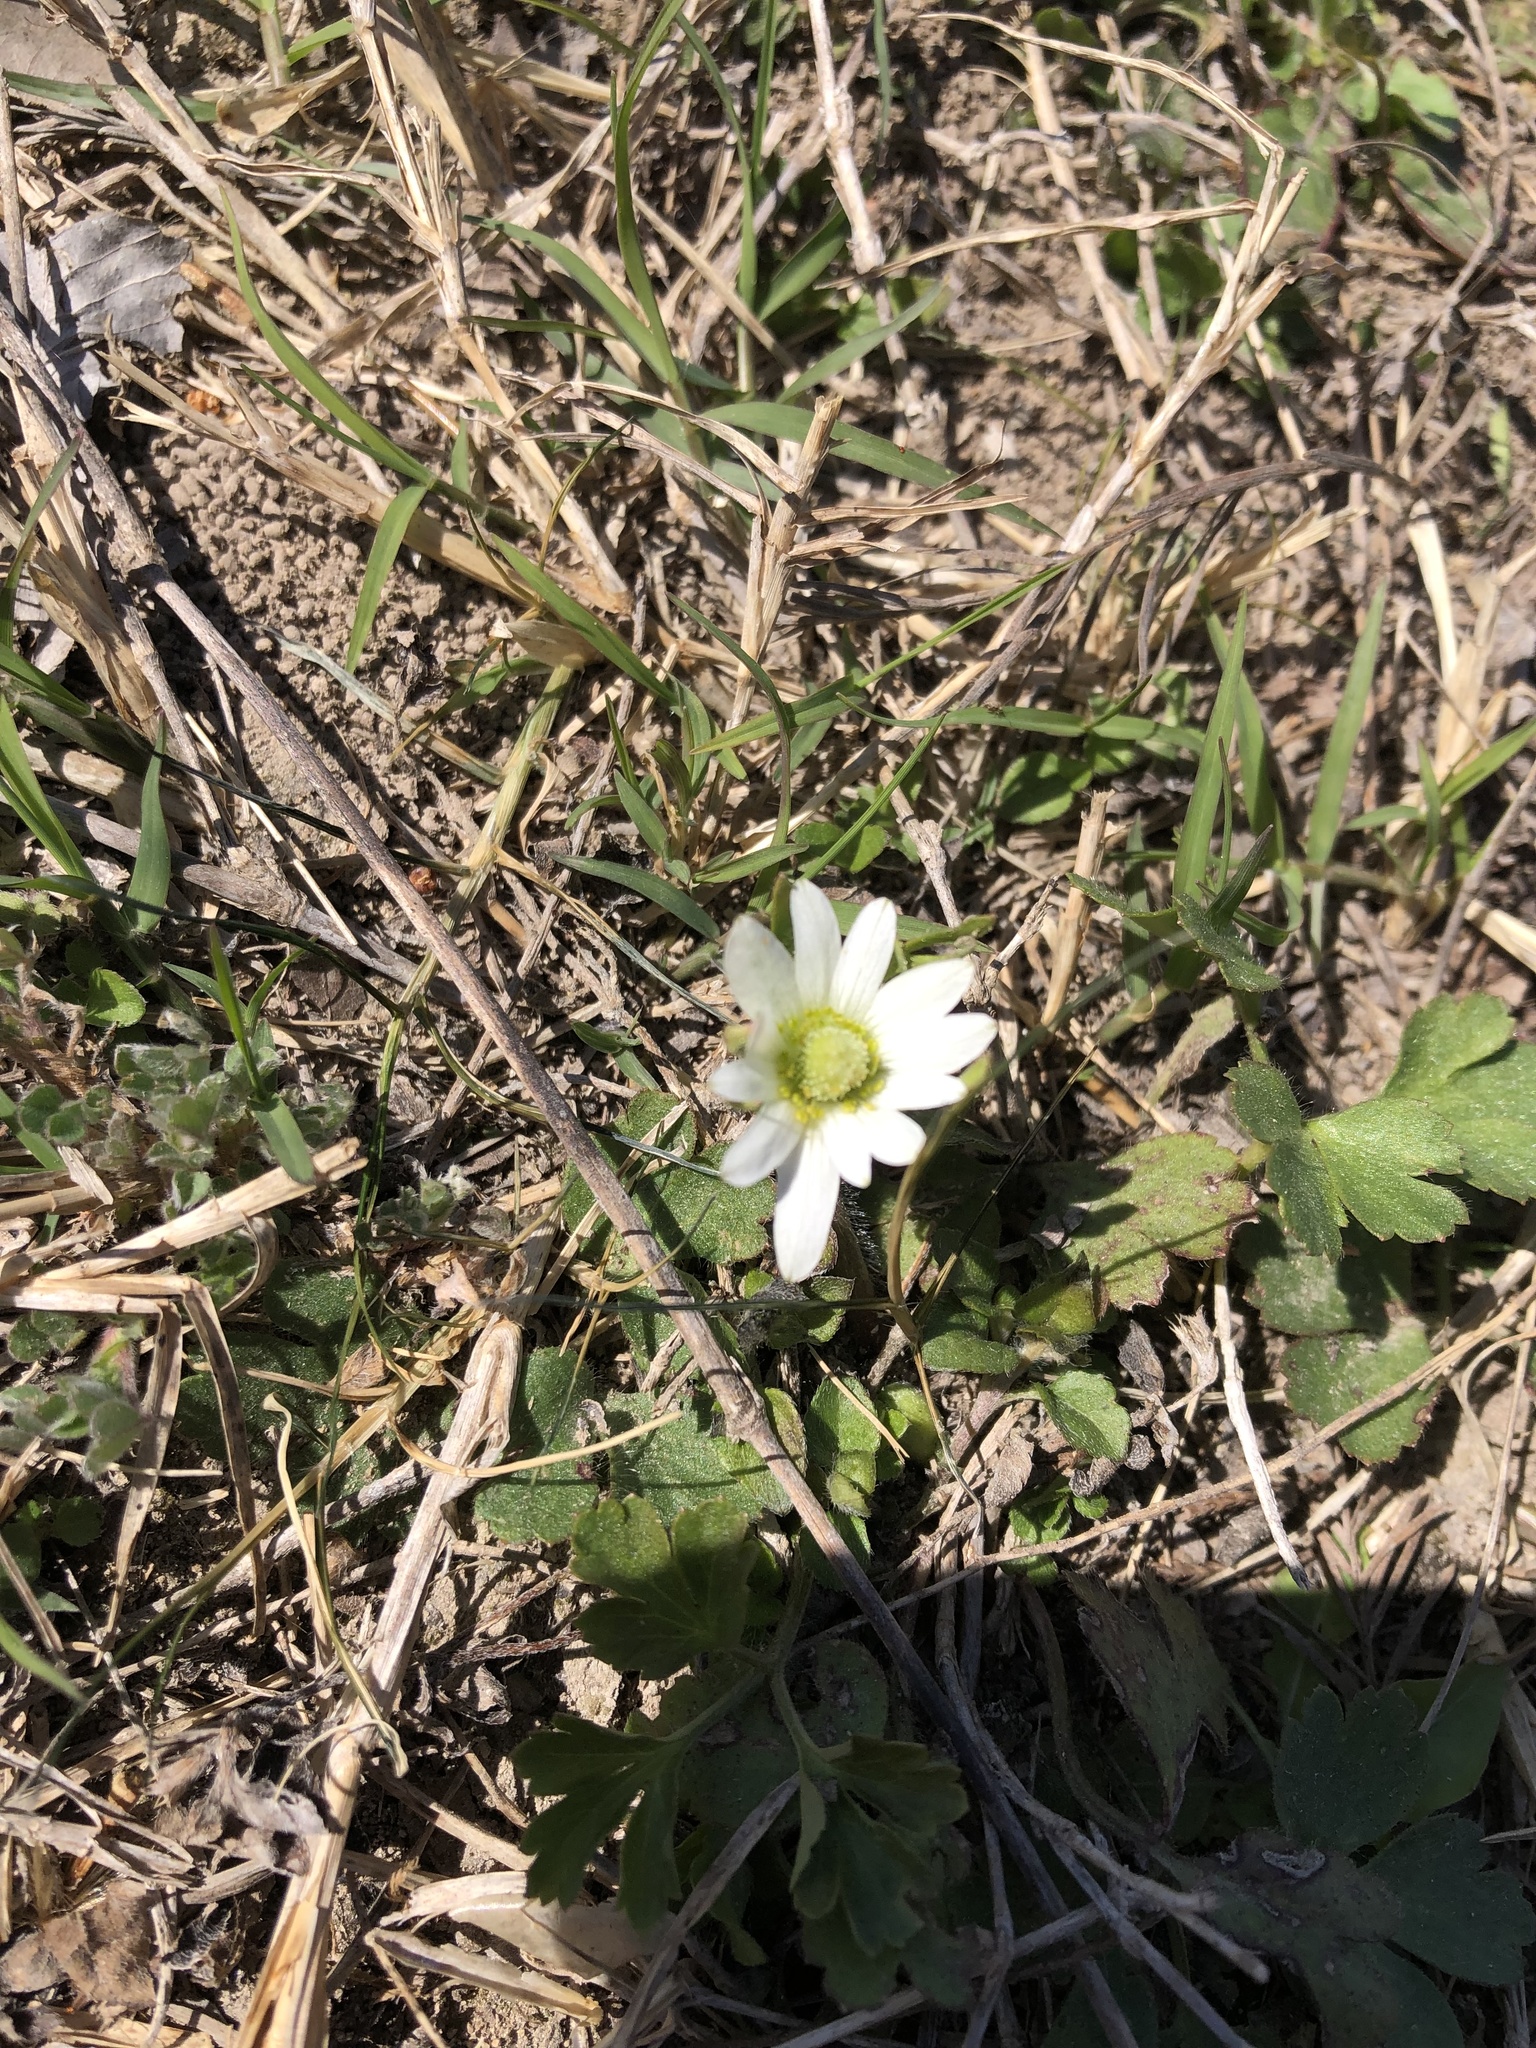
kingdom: Plantae
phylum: Tracheophyta
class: Magnoliopsida
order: Ranunculales
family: Ranunculaceae
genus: Anemone
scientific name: Anemone berlandieri
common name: Ten-petal anemone
